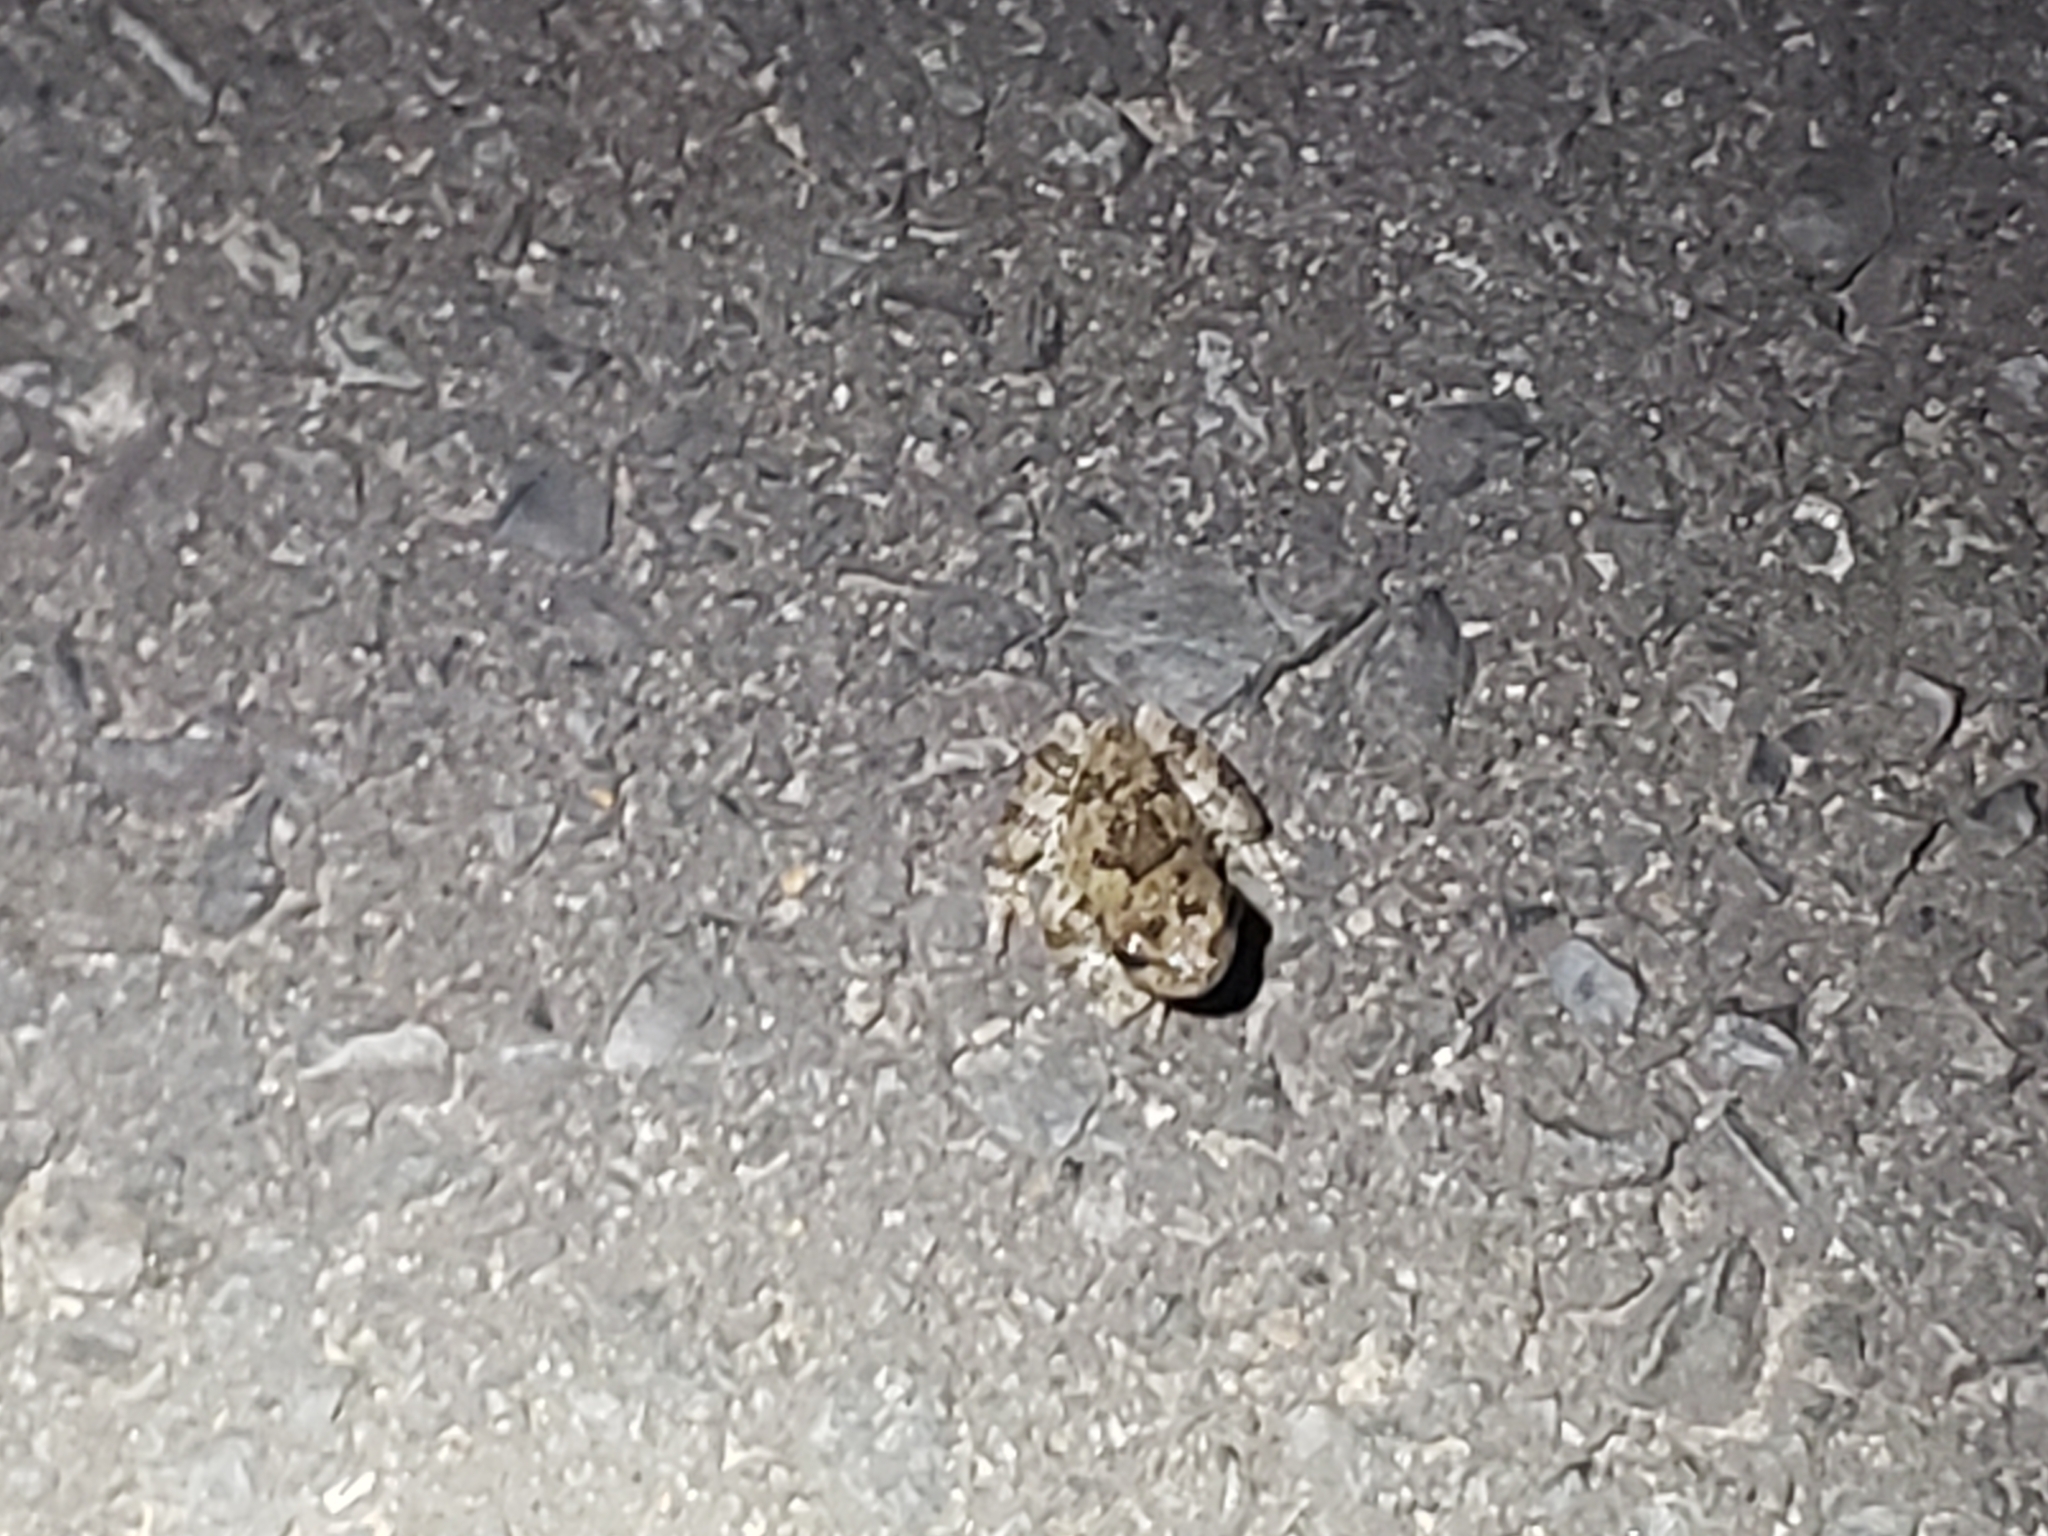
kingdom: Animalia
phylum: Chordata
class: Amphibia
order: Anura
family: Hylidae
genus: Dryophytes
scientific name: Dryophytes chrysoscelis
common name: Cope's gray treefrog
